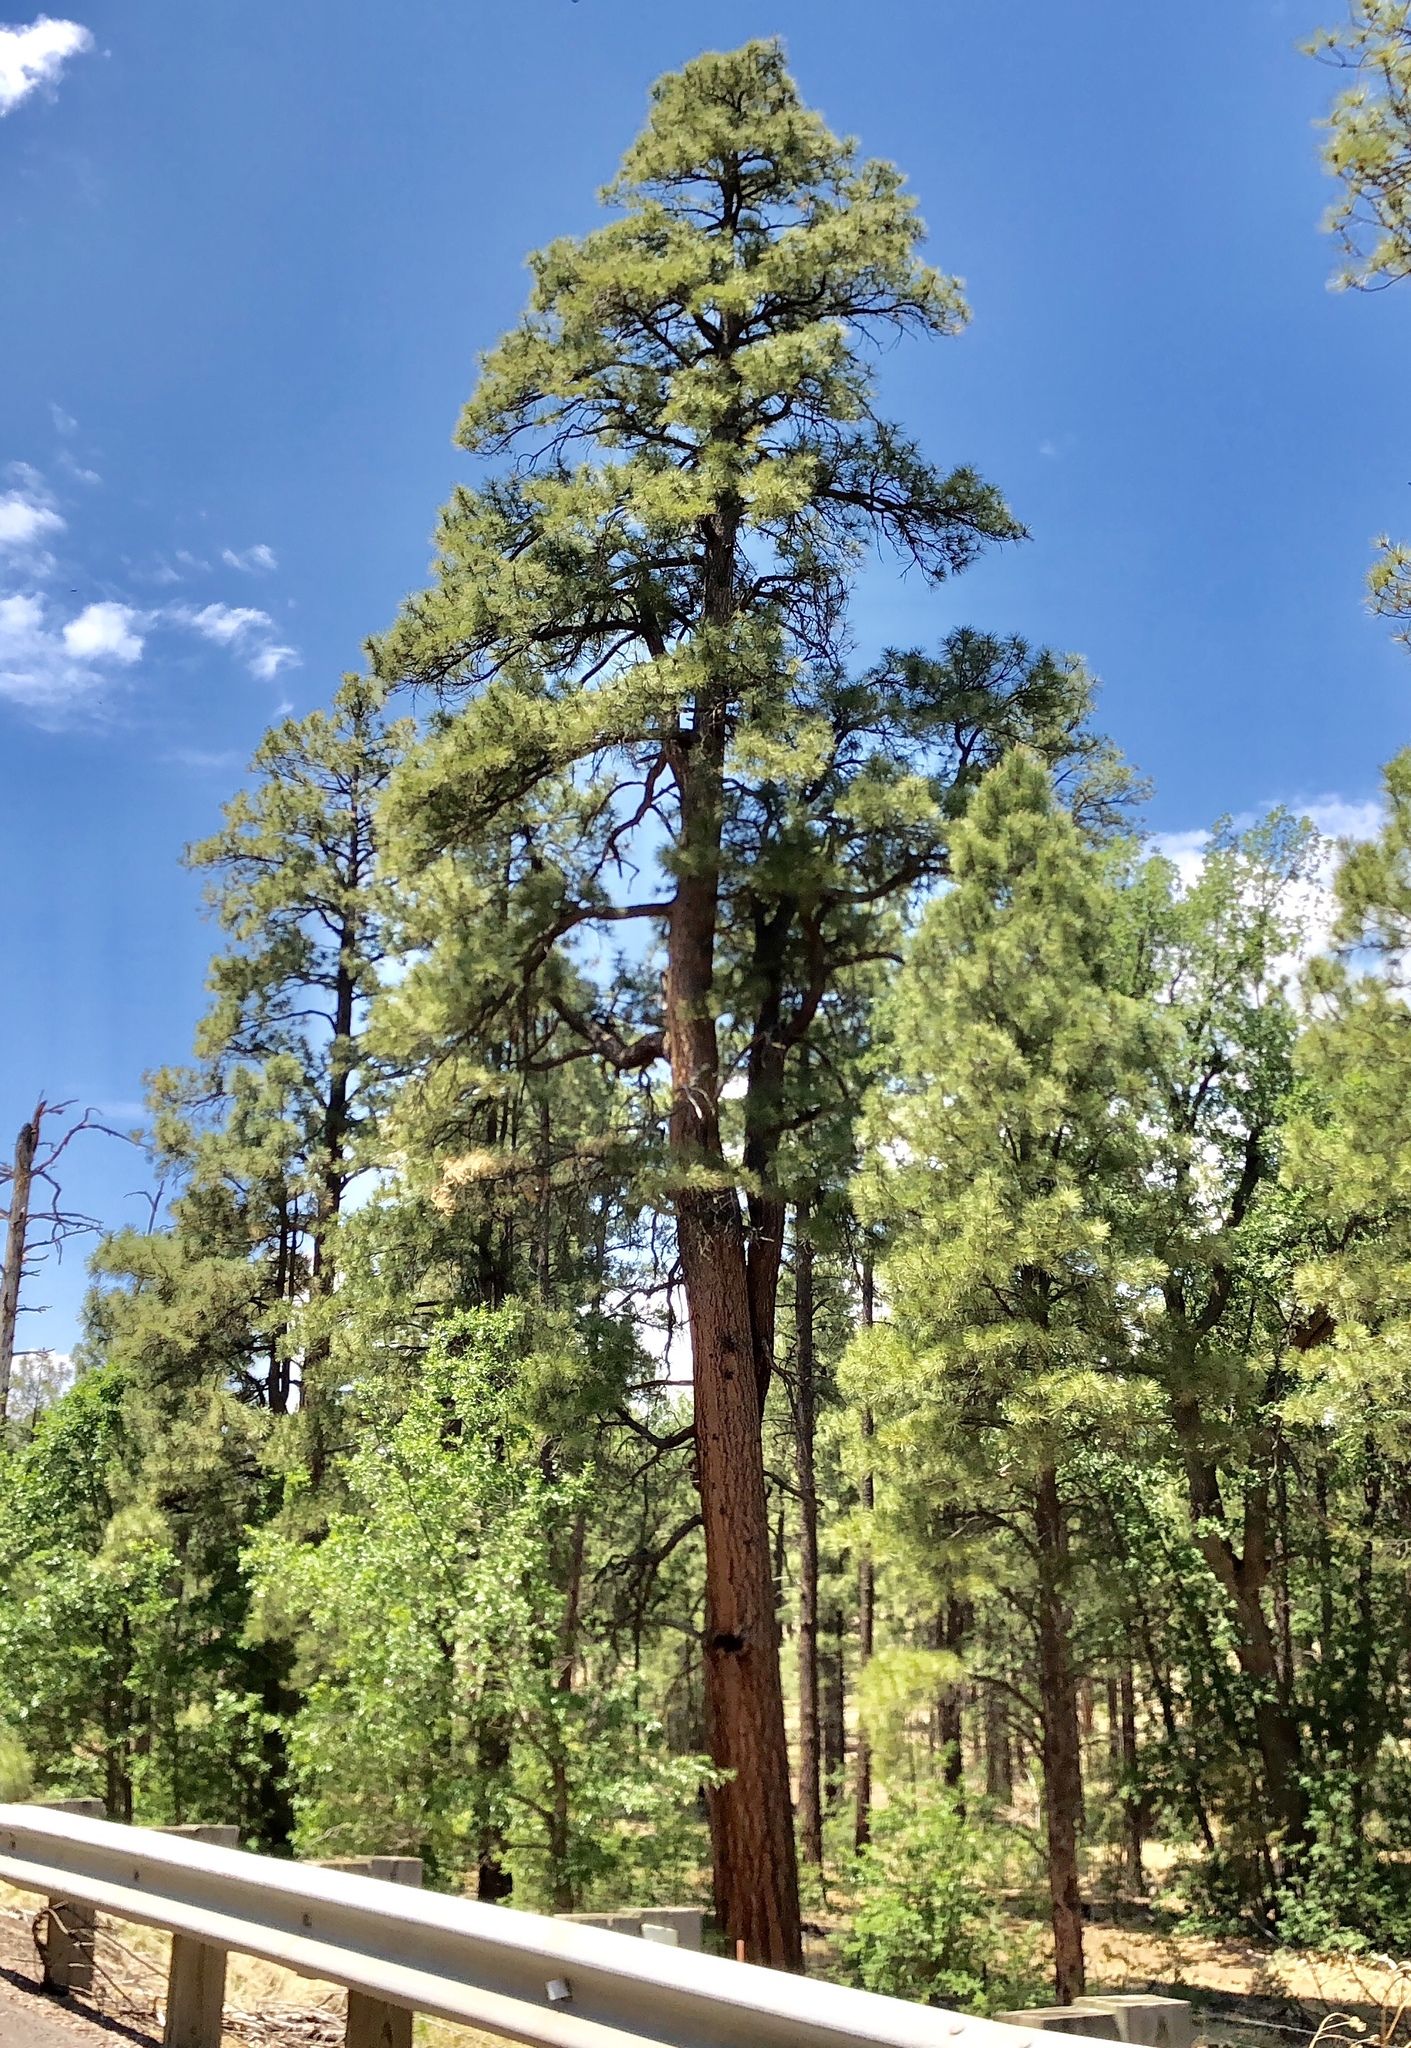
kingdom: Plantae
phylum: Tracheophyta
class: Pinopsida
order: Pinales
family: Pinaceae
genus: Pinus
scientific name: Pinus ponderosa
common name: Western yellow-pine
